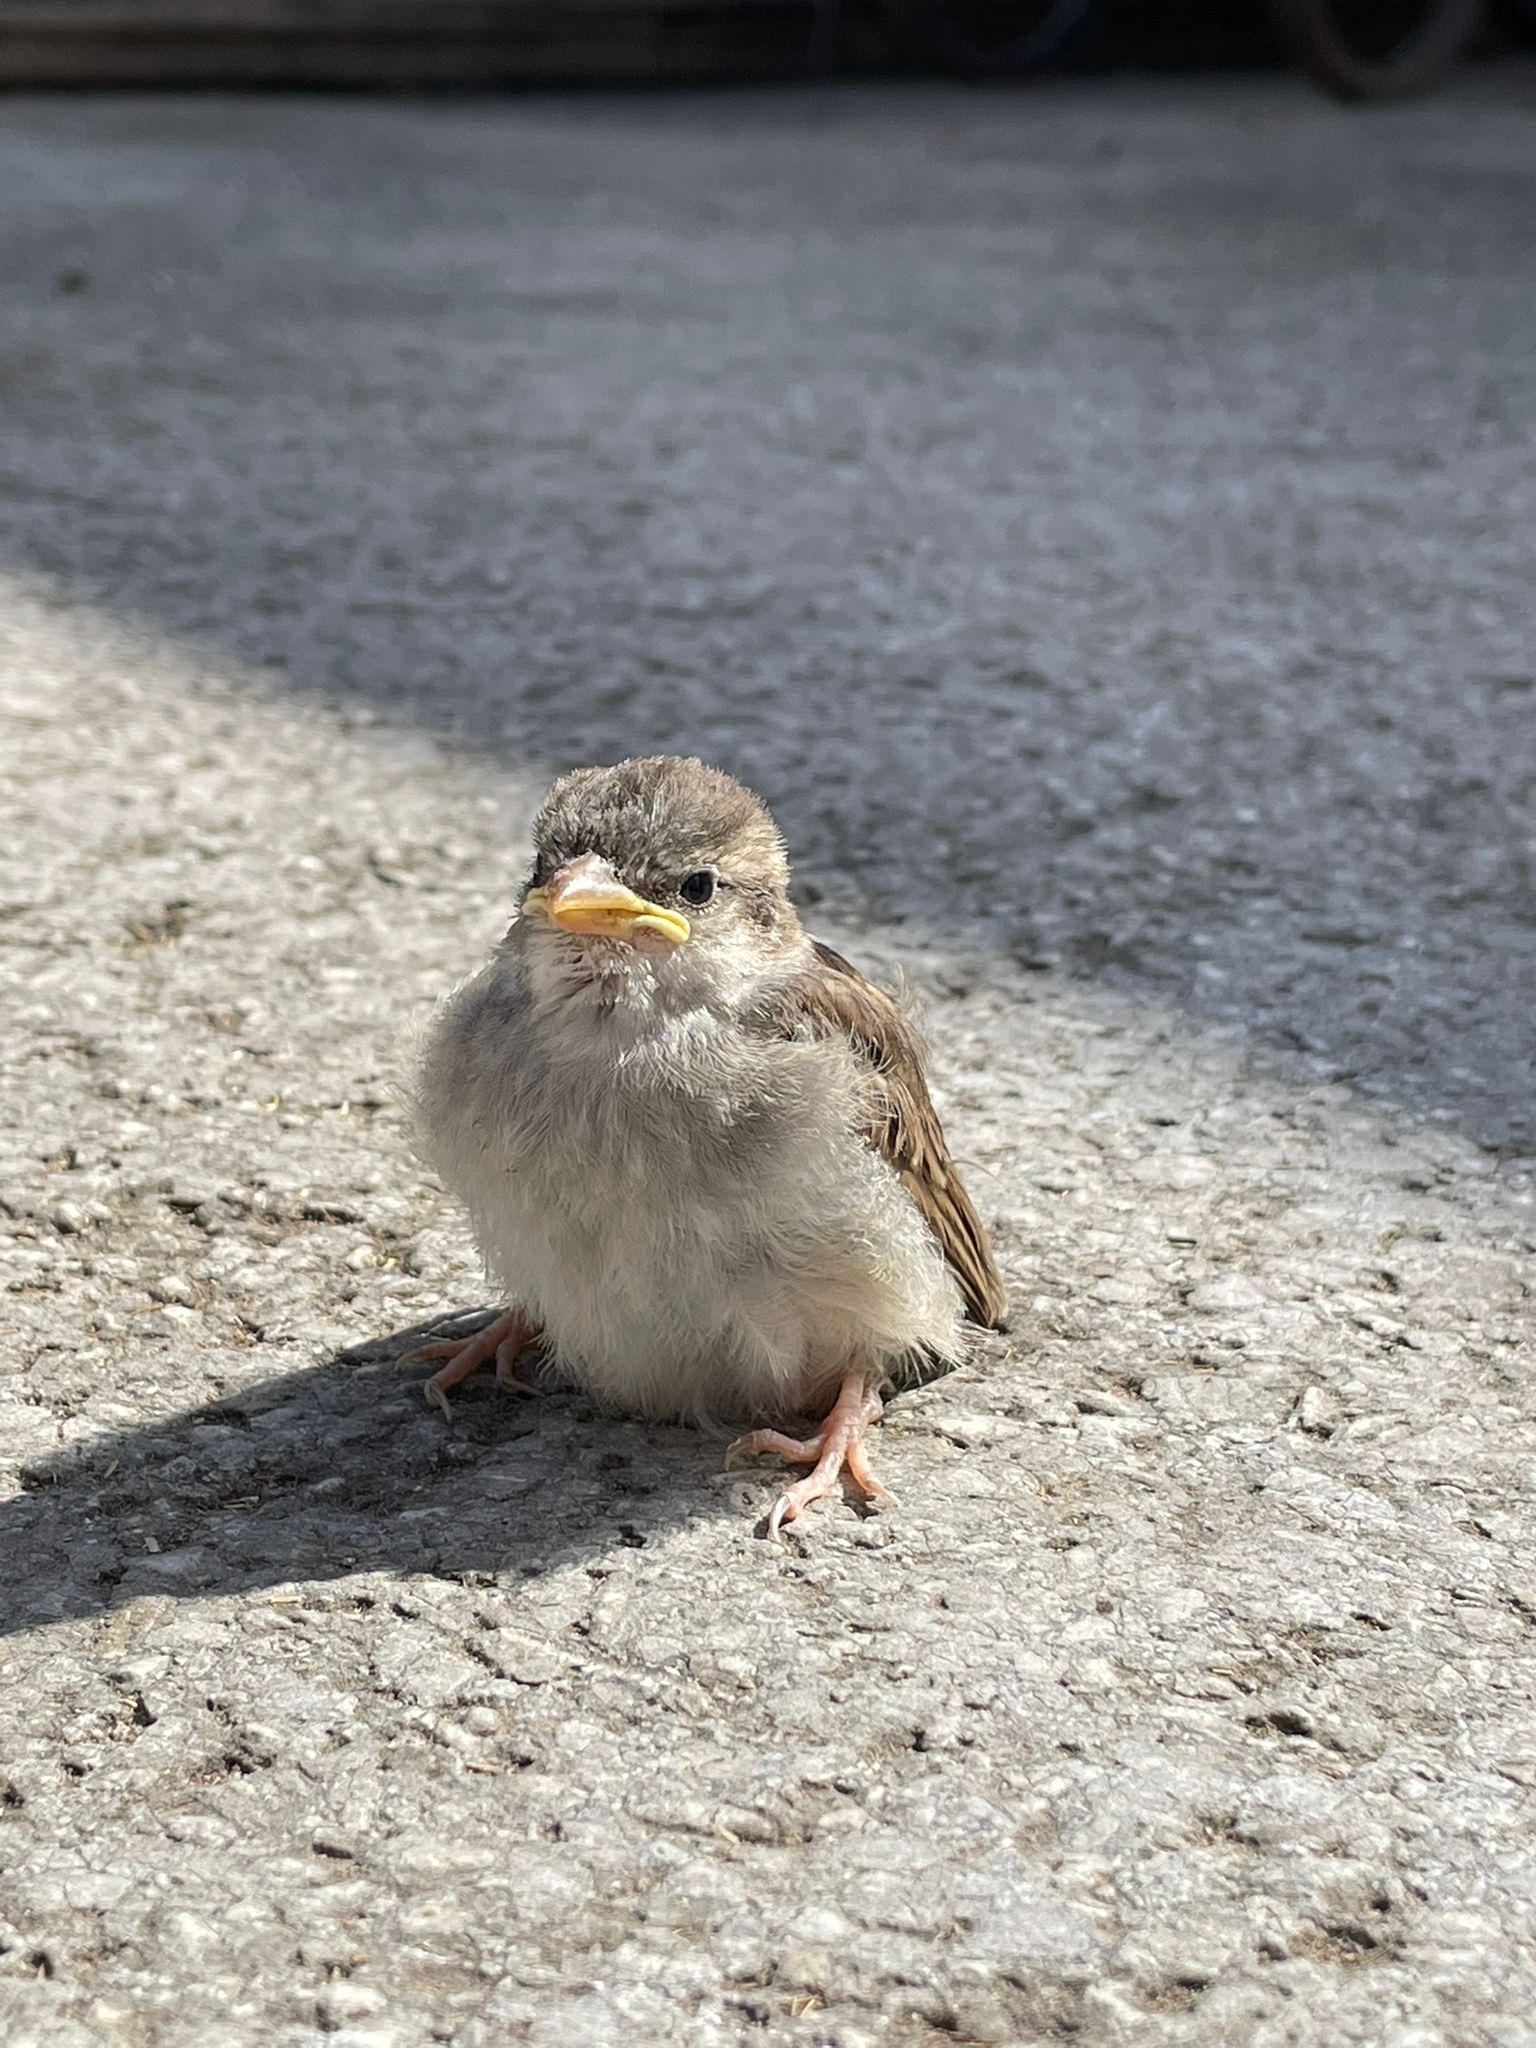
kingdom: Animalia
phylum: Chordata
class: Aves
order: Passeriformes
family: Passeridae
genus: Passer
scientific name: Passer domesticus
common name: House sparrow
